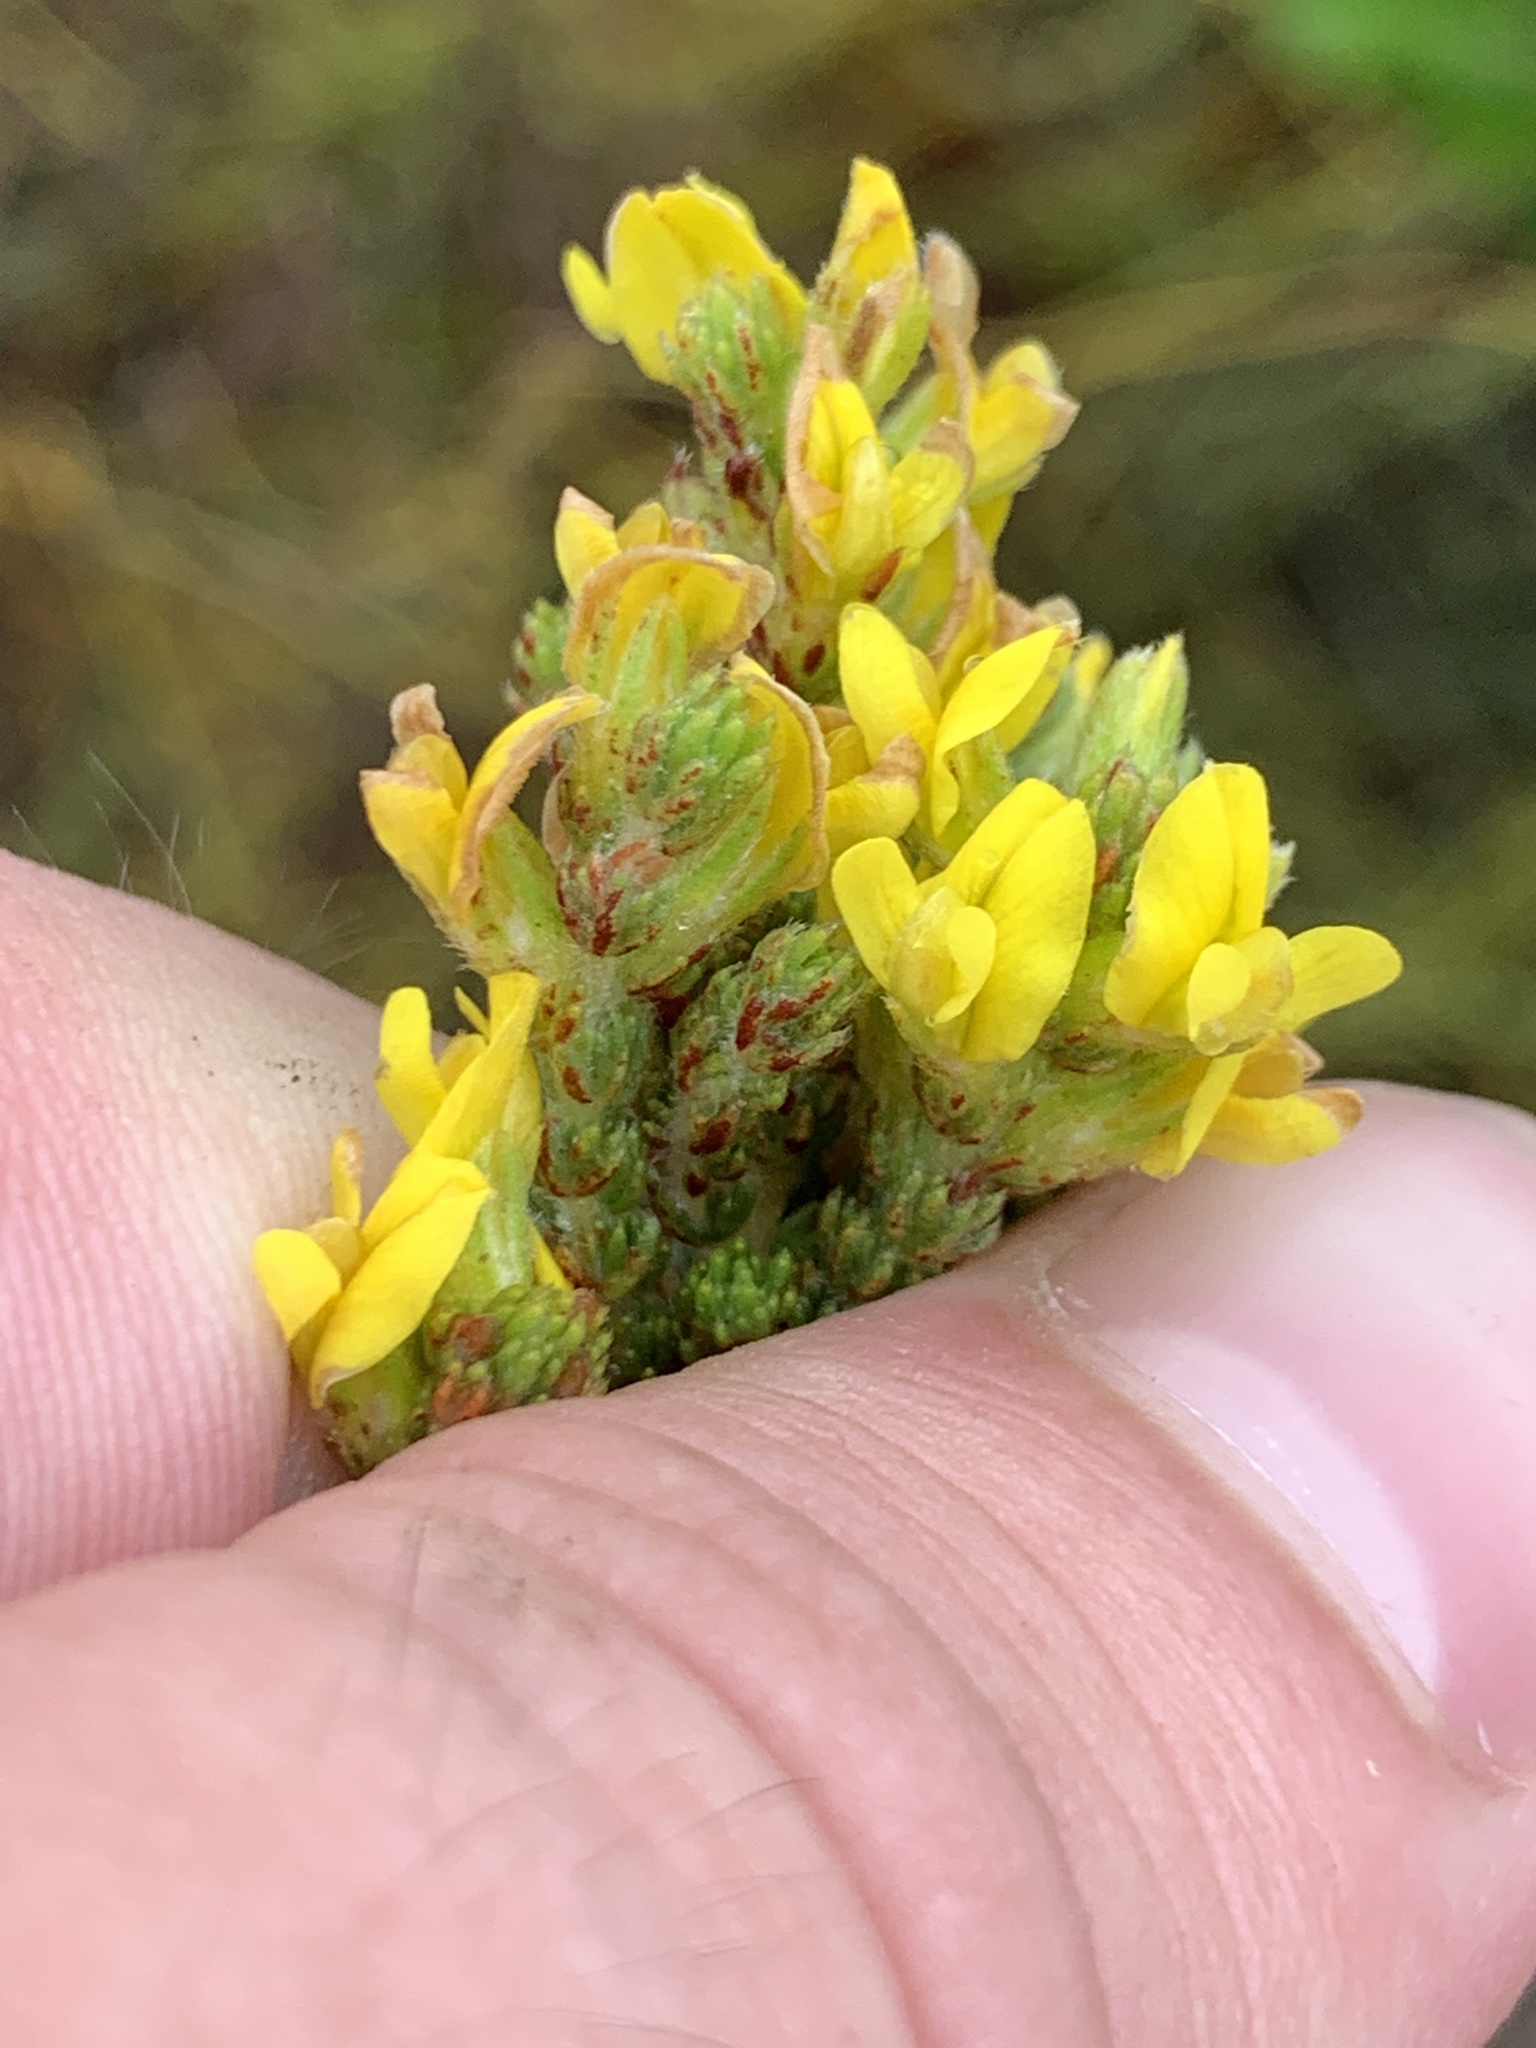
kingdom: Plantae
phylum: Tracheophyta
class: Magnoliopsida
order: Fabales
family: Fabaceae
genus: Aspalathus
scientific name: Aspalathus ericifolia
